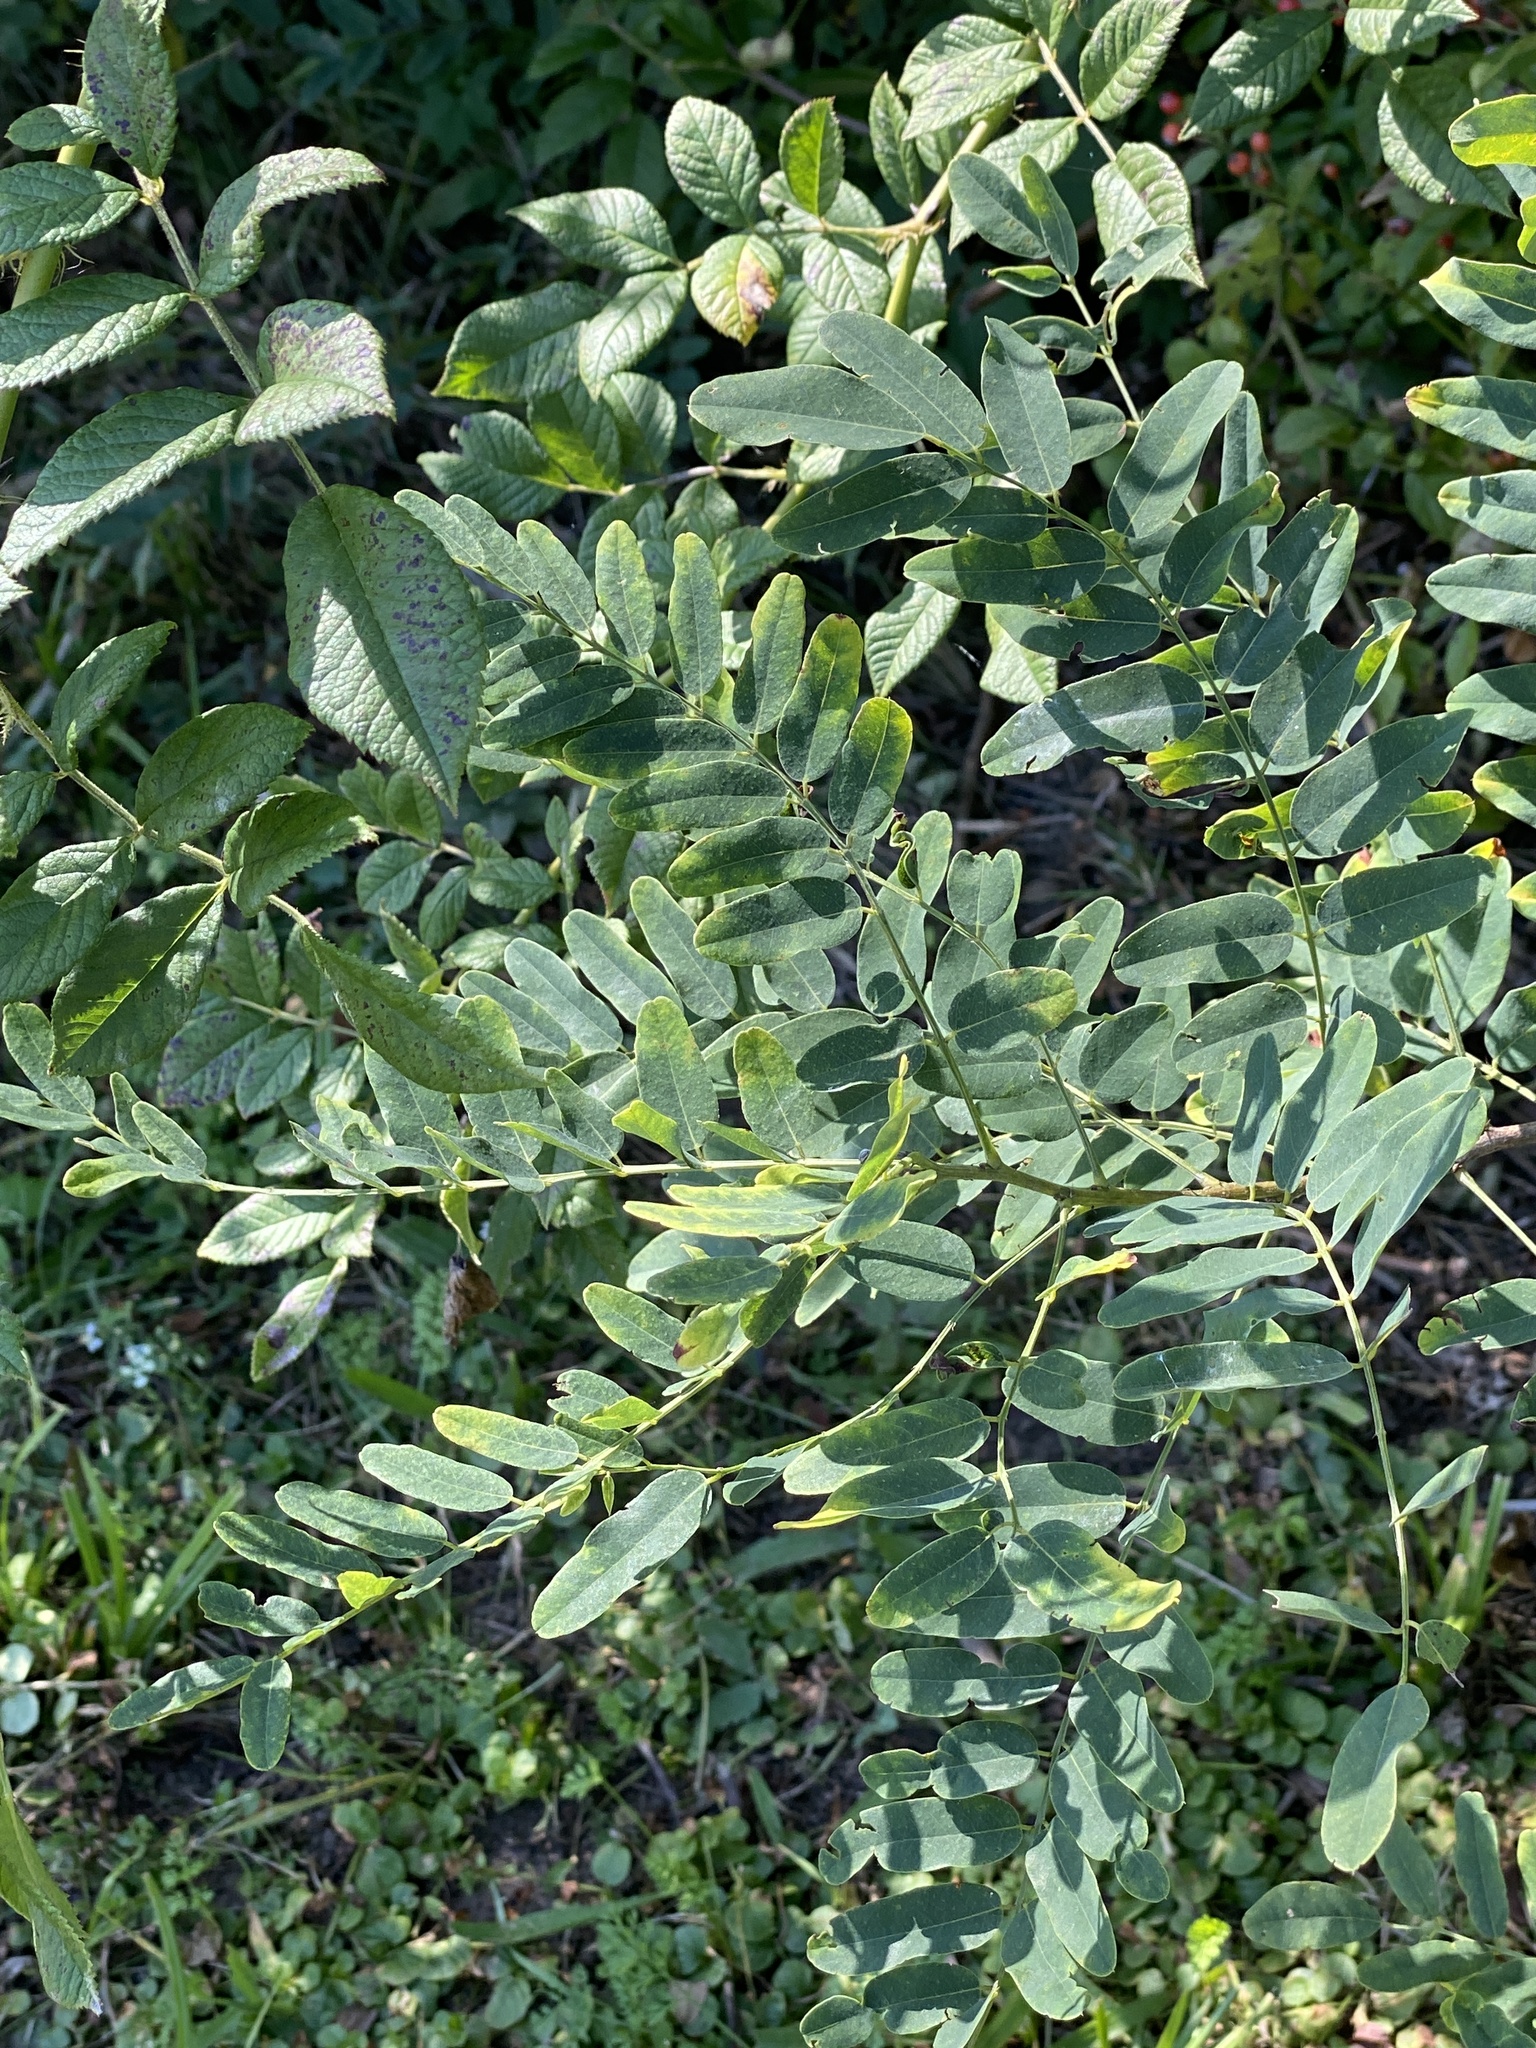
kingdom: Plantae
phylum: Tracheophyta
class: Magnoliopsida
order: Fabales
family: Fabaceae
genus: Amorpha
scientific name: Amorpha fruticosa
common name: False indigo
